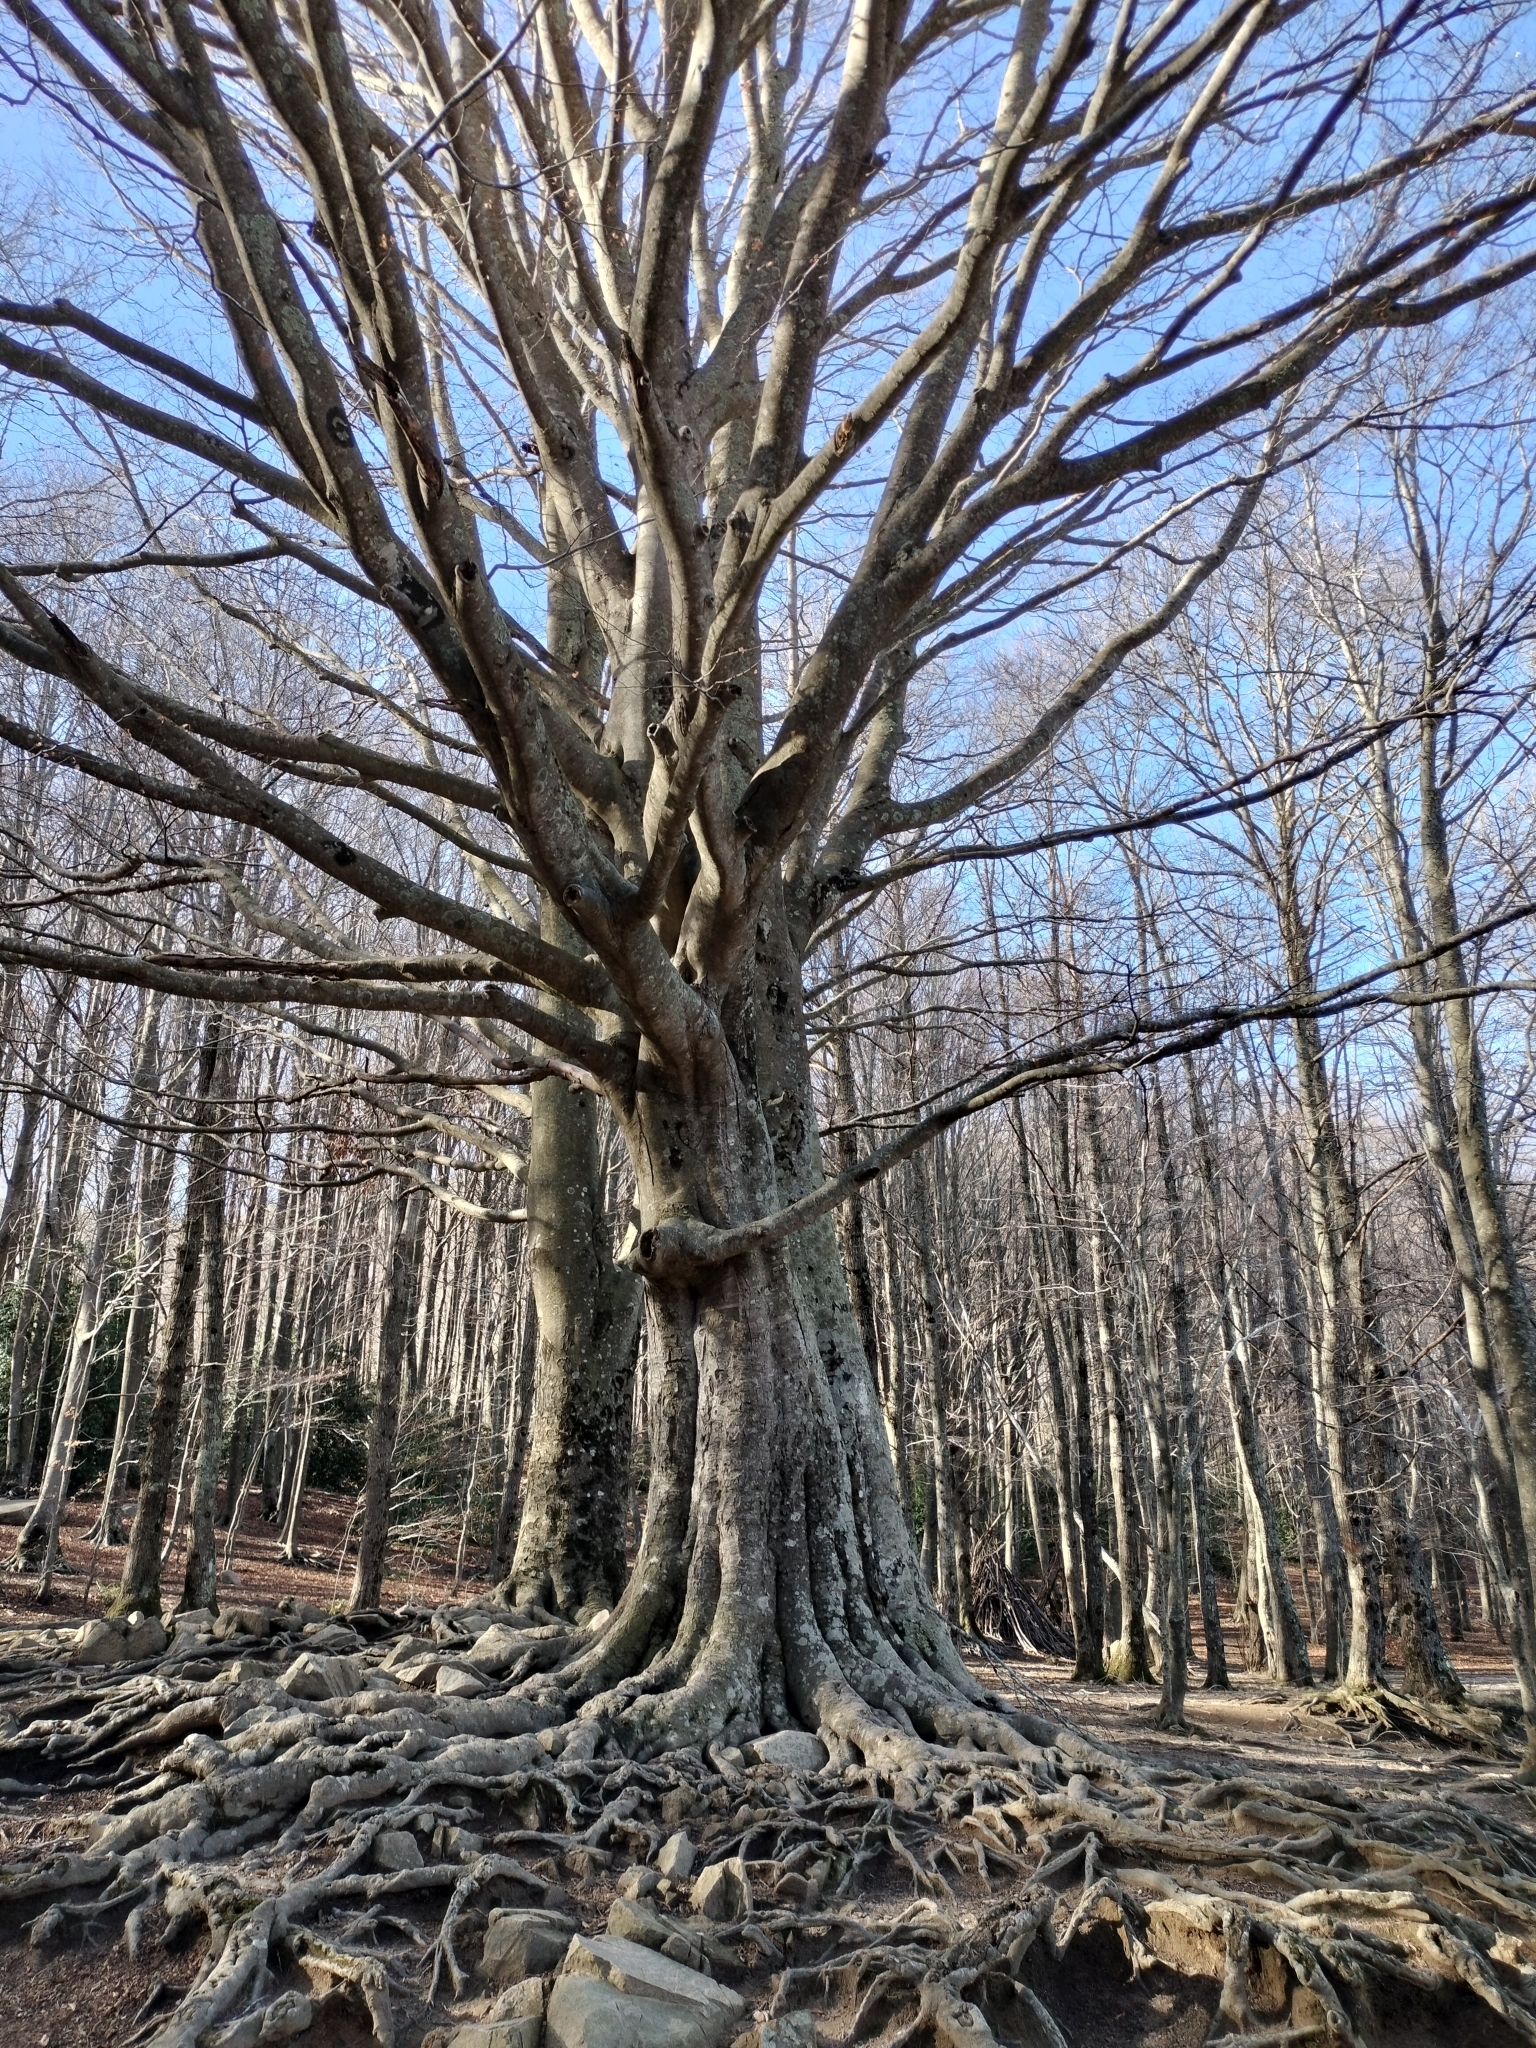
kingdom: Plantae
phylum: Tracheophyta
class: Magnoliopsida
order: Fagales
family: Fagaceae
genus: Fagus
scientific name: Fagus sylvatica
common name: Beech
